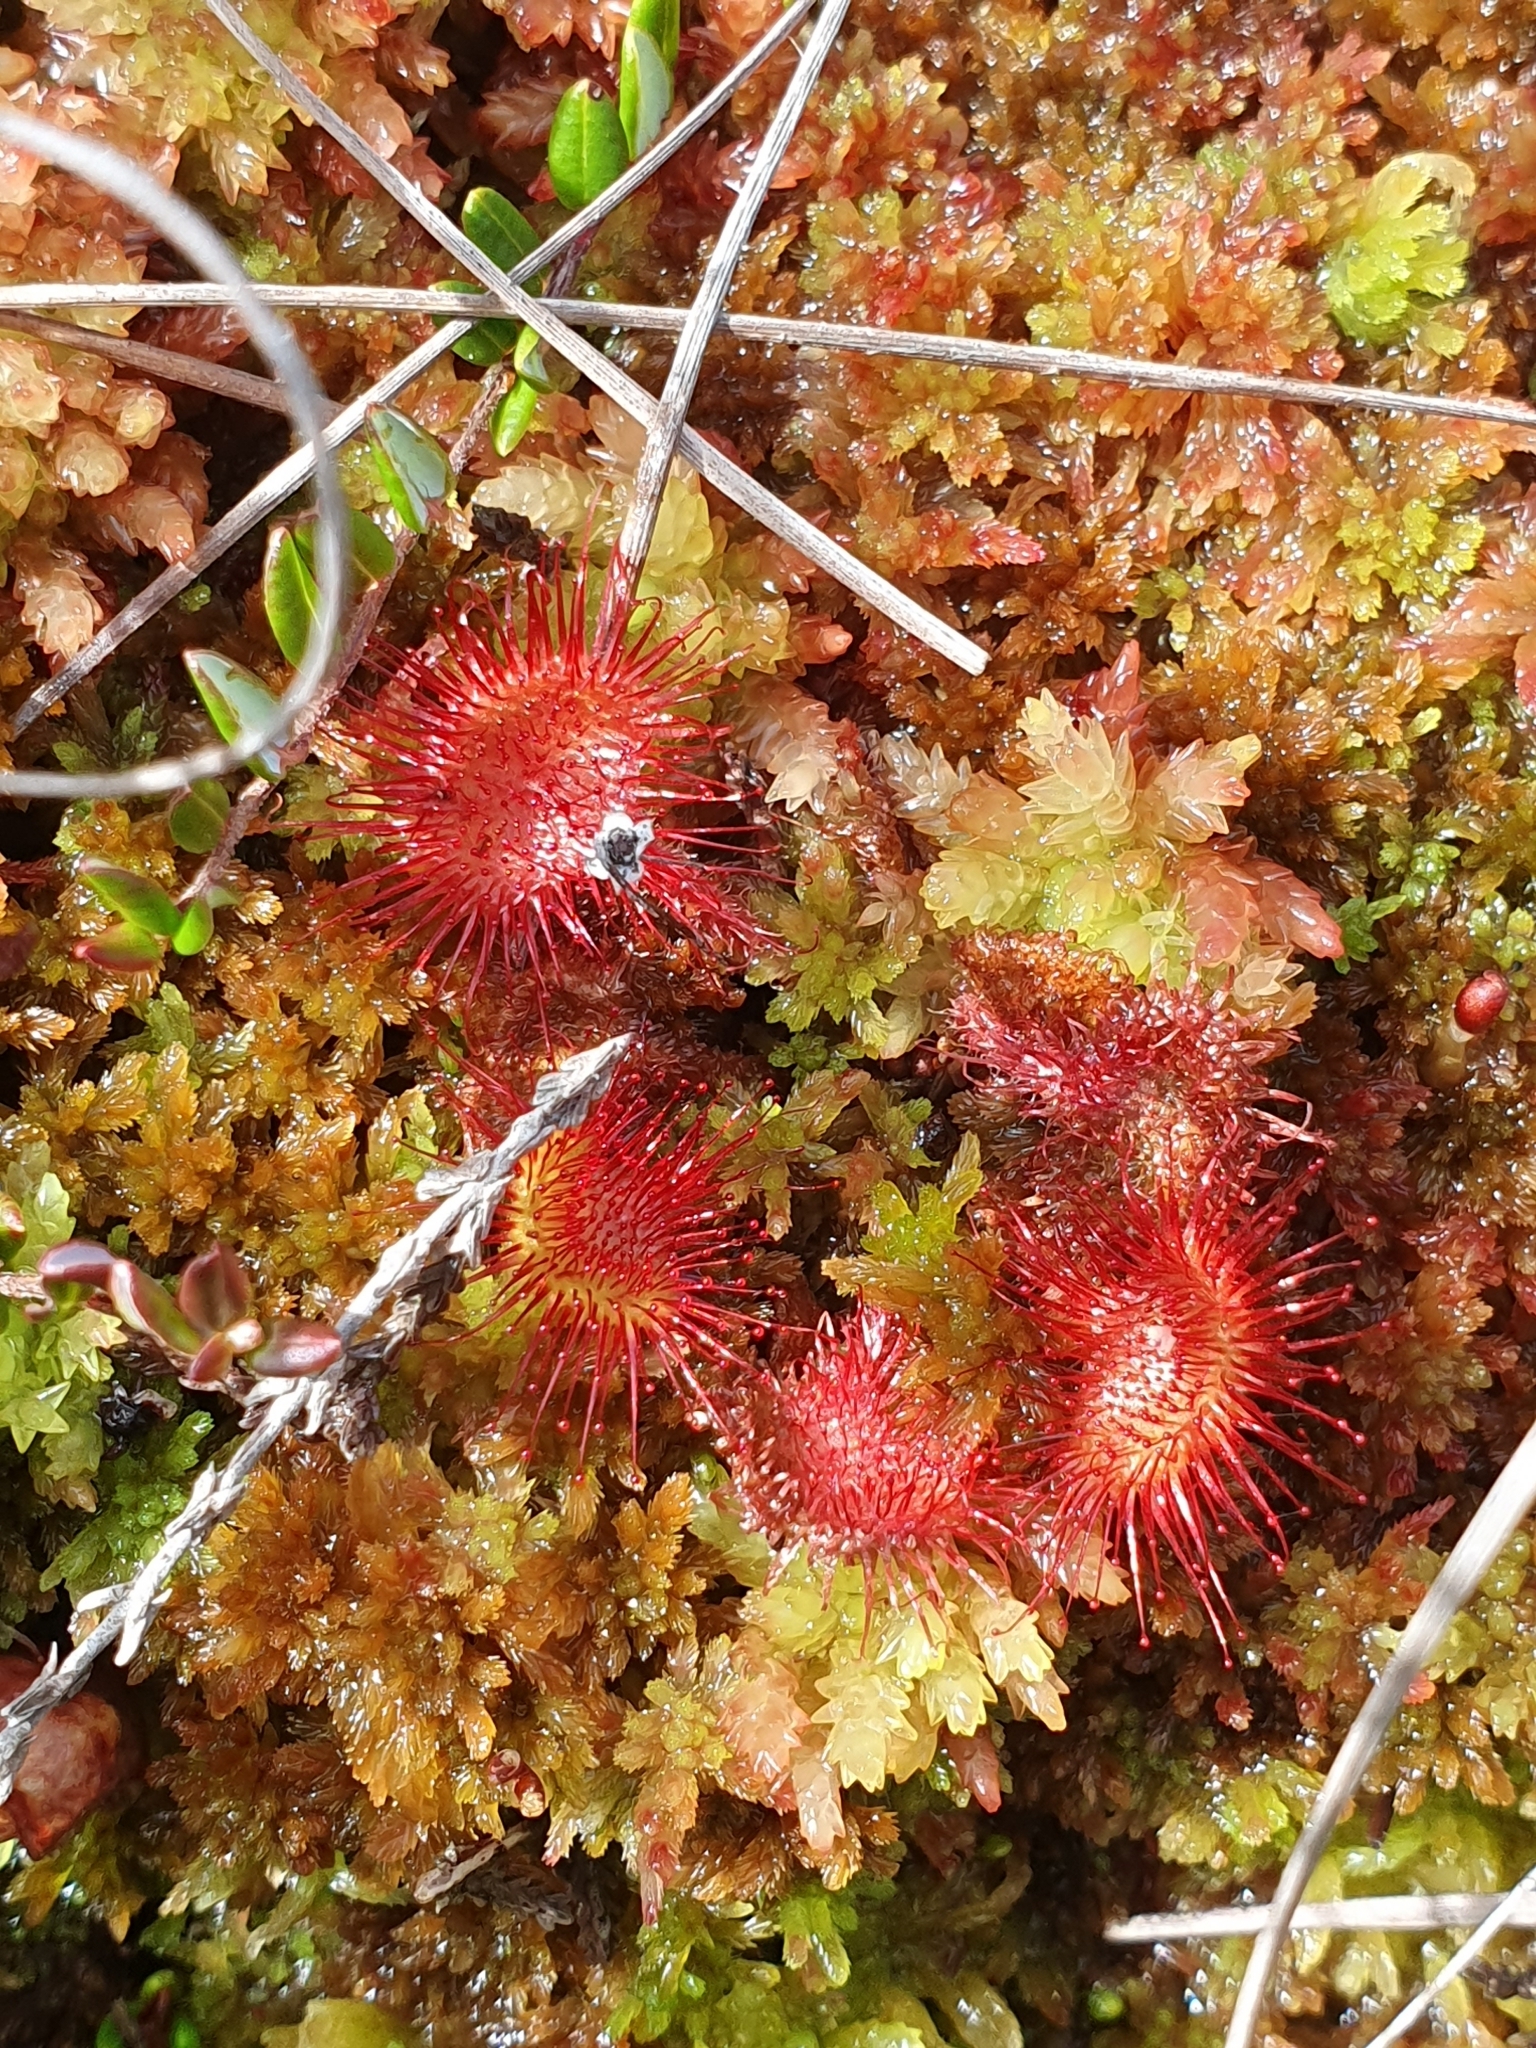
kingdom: Plantae
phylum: Tracheophyta
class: Magnoliopsida
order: Caryophyllales
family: Droseraceae
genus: Drosera
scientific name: Drosera rotundifolia
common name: Round-leaved sundew
